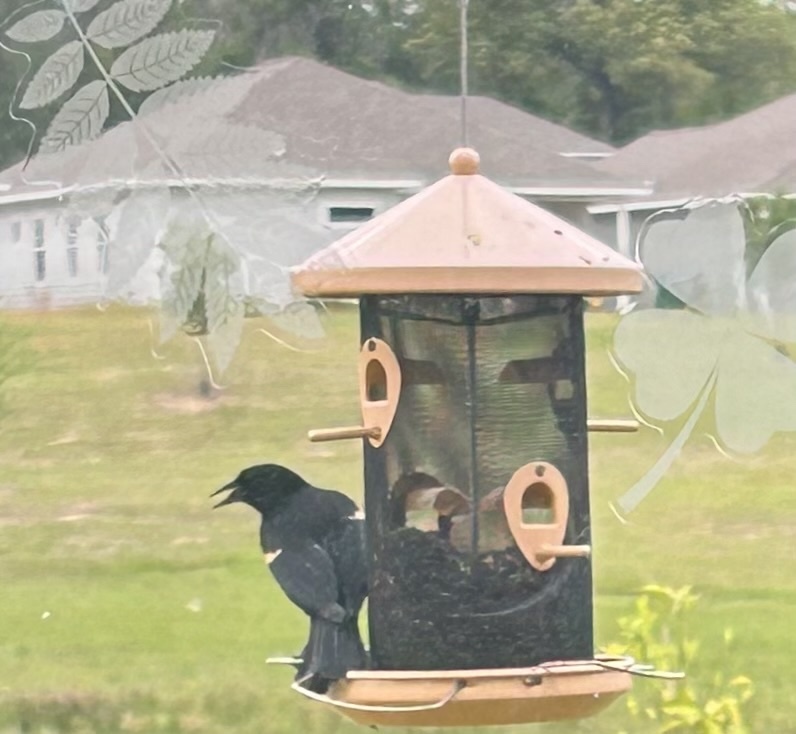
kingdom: Animalia
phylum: Chordata
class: Aves
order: Passeriformes
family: Icteridae
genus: Agelaius
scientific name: Agelaius phoeniceus
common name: Red-winged blackbird
